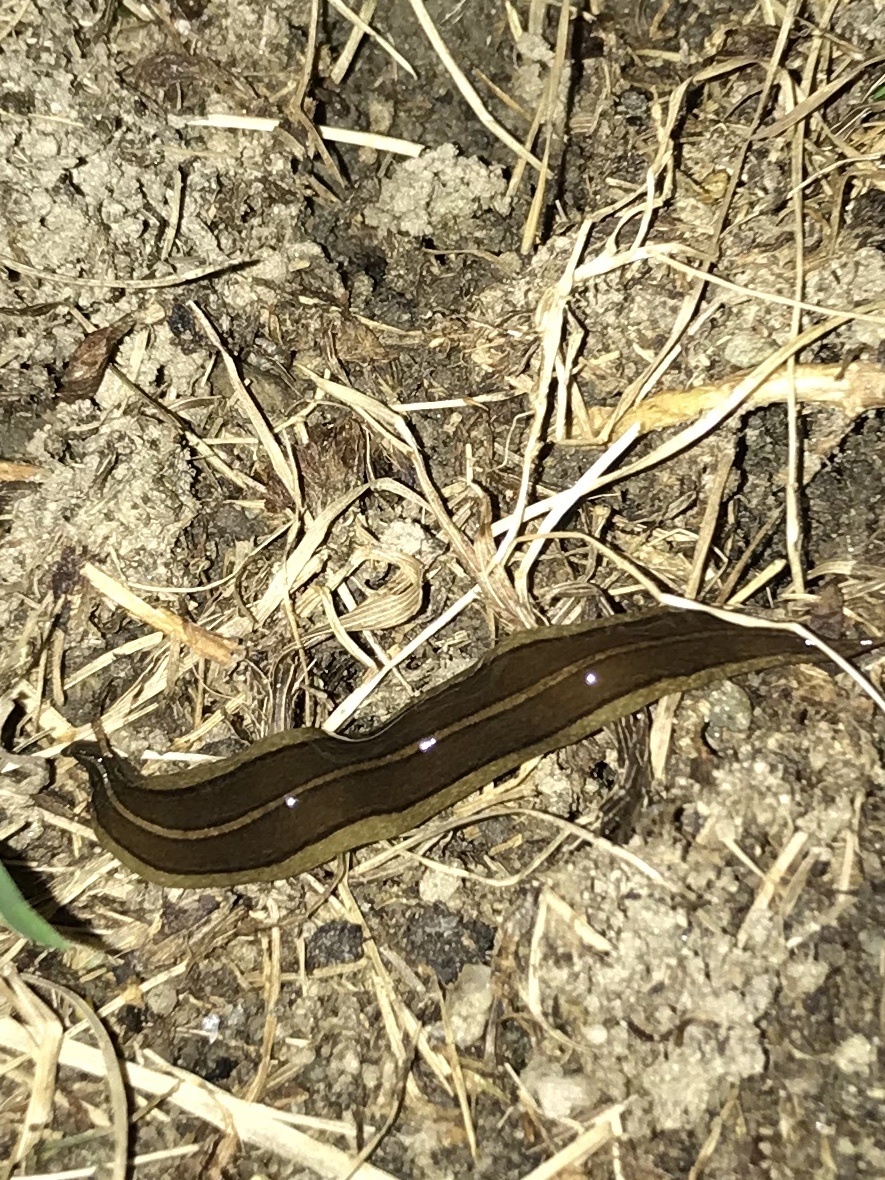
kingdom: Animalia
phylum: Platyhelminthes
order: Tricladida
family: Geoplanidae
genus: Newzealandia
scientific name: Newzealandia graffii
